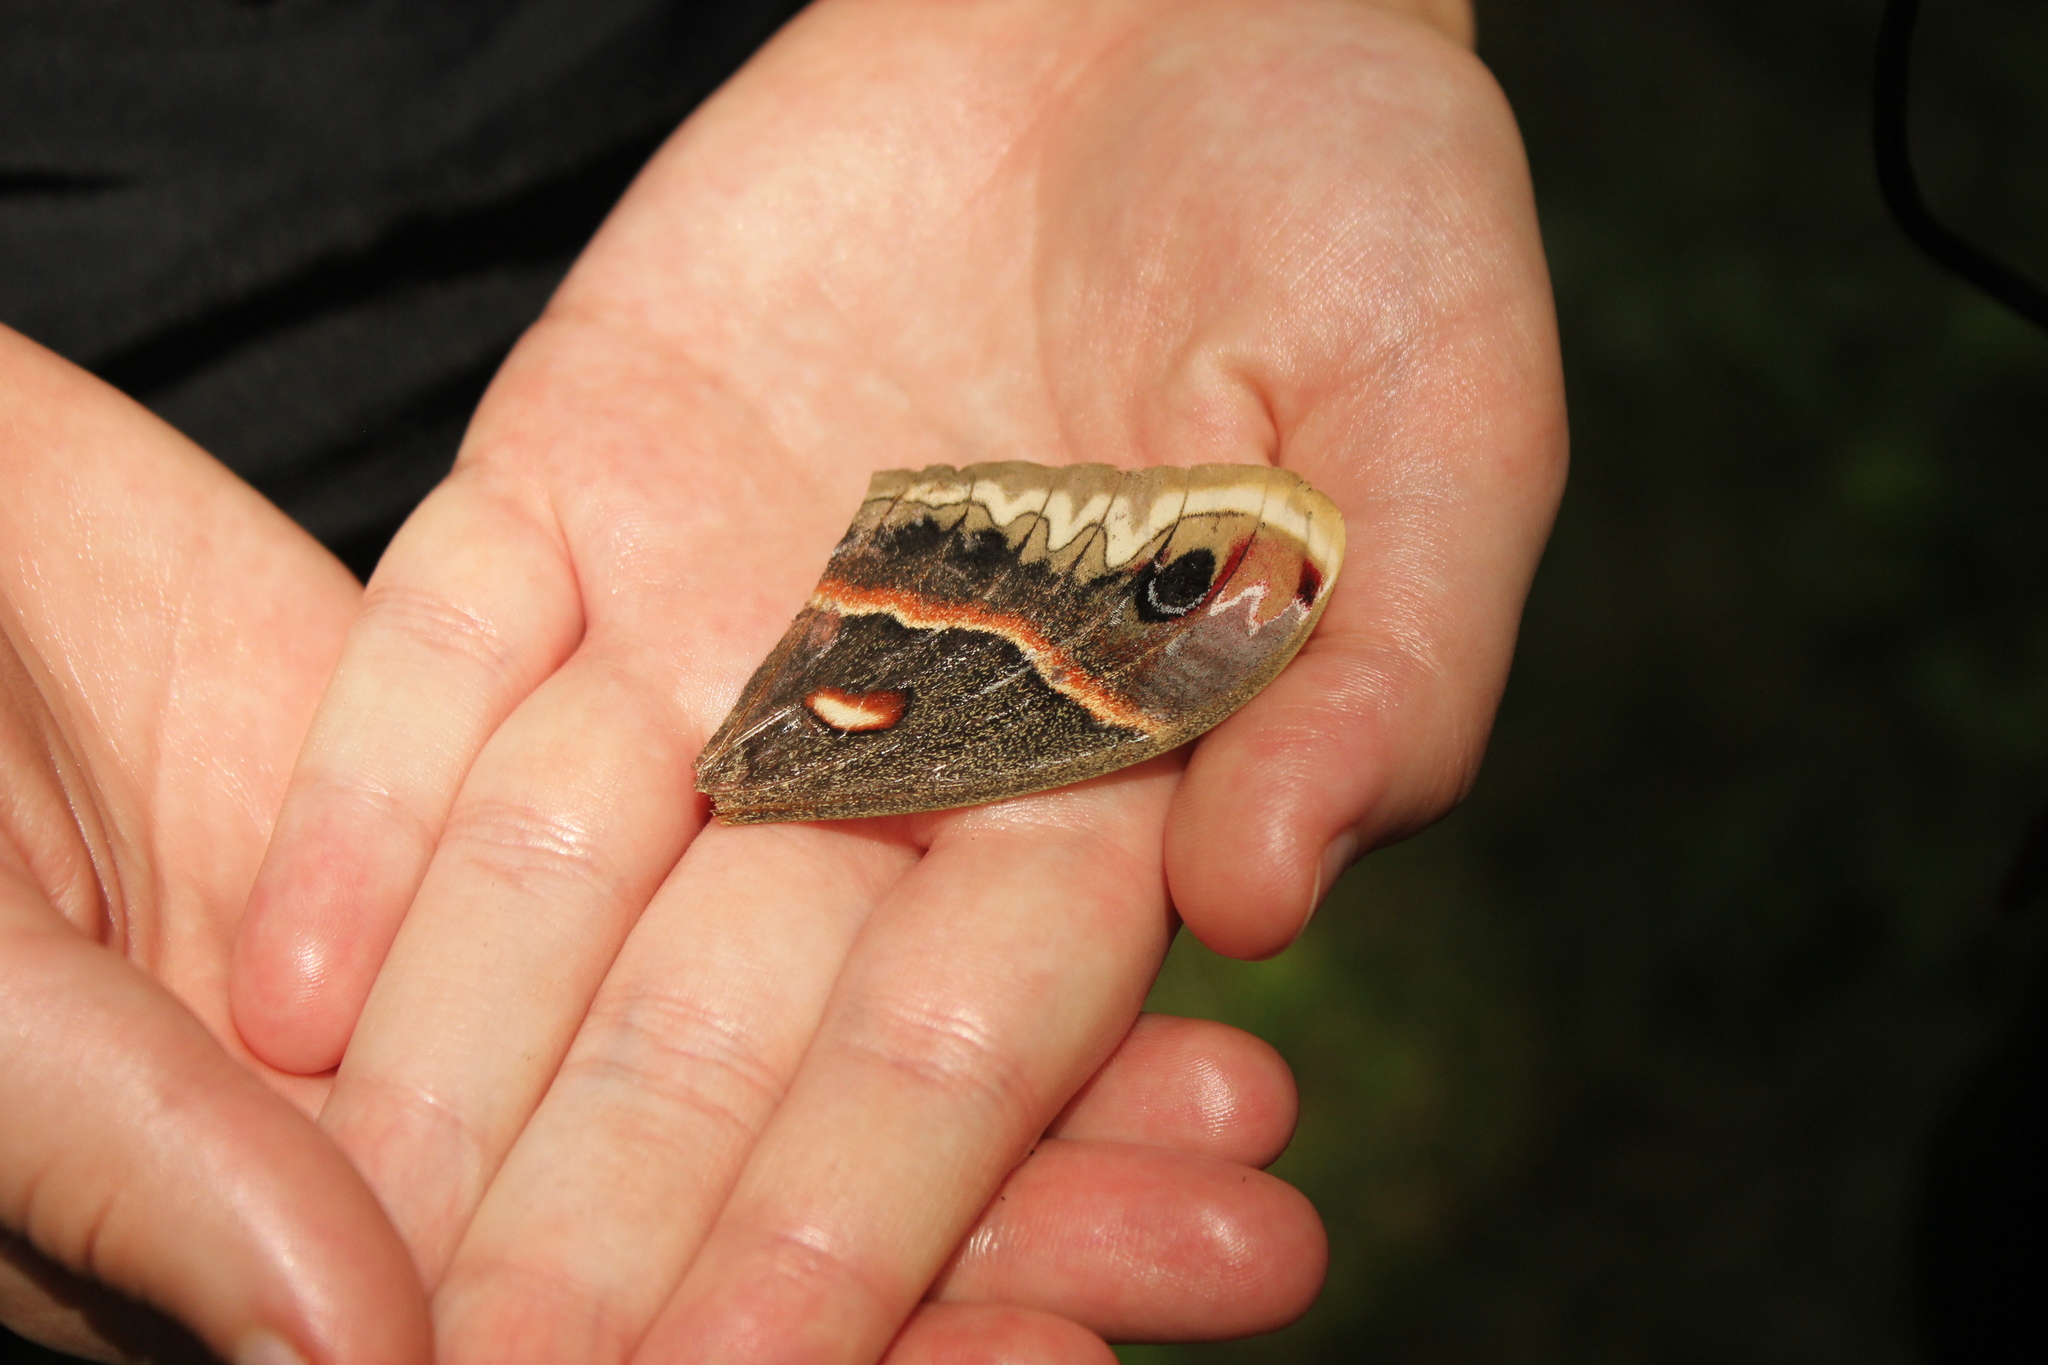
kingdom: Animalia
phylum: Arthropoda
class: Insecta
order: Lepidoptera
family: Saturniidae
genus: Hyalophora
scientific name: Hyalophora cecropia
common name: Cecropia silkmoth
